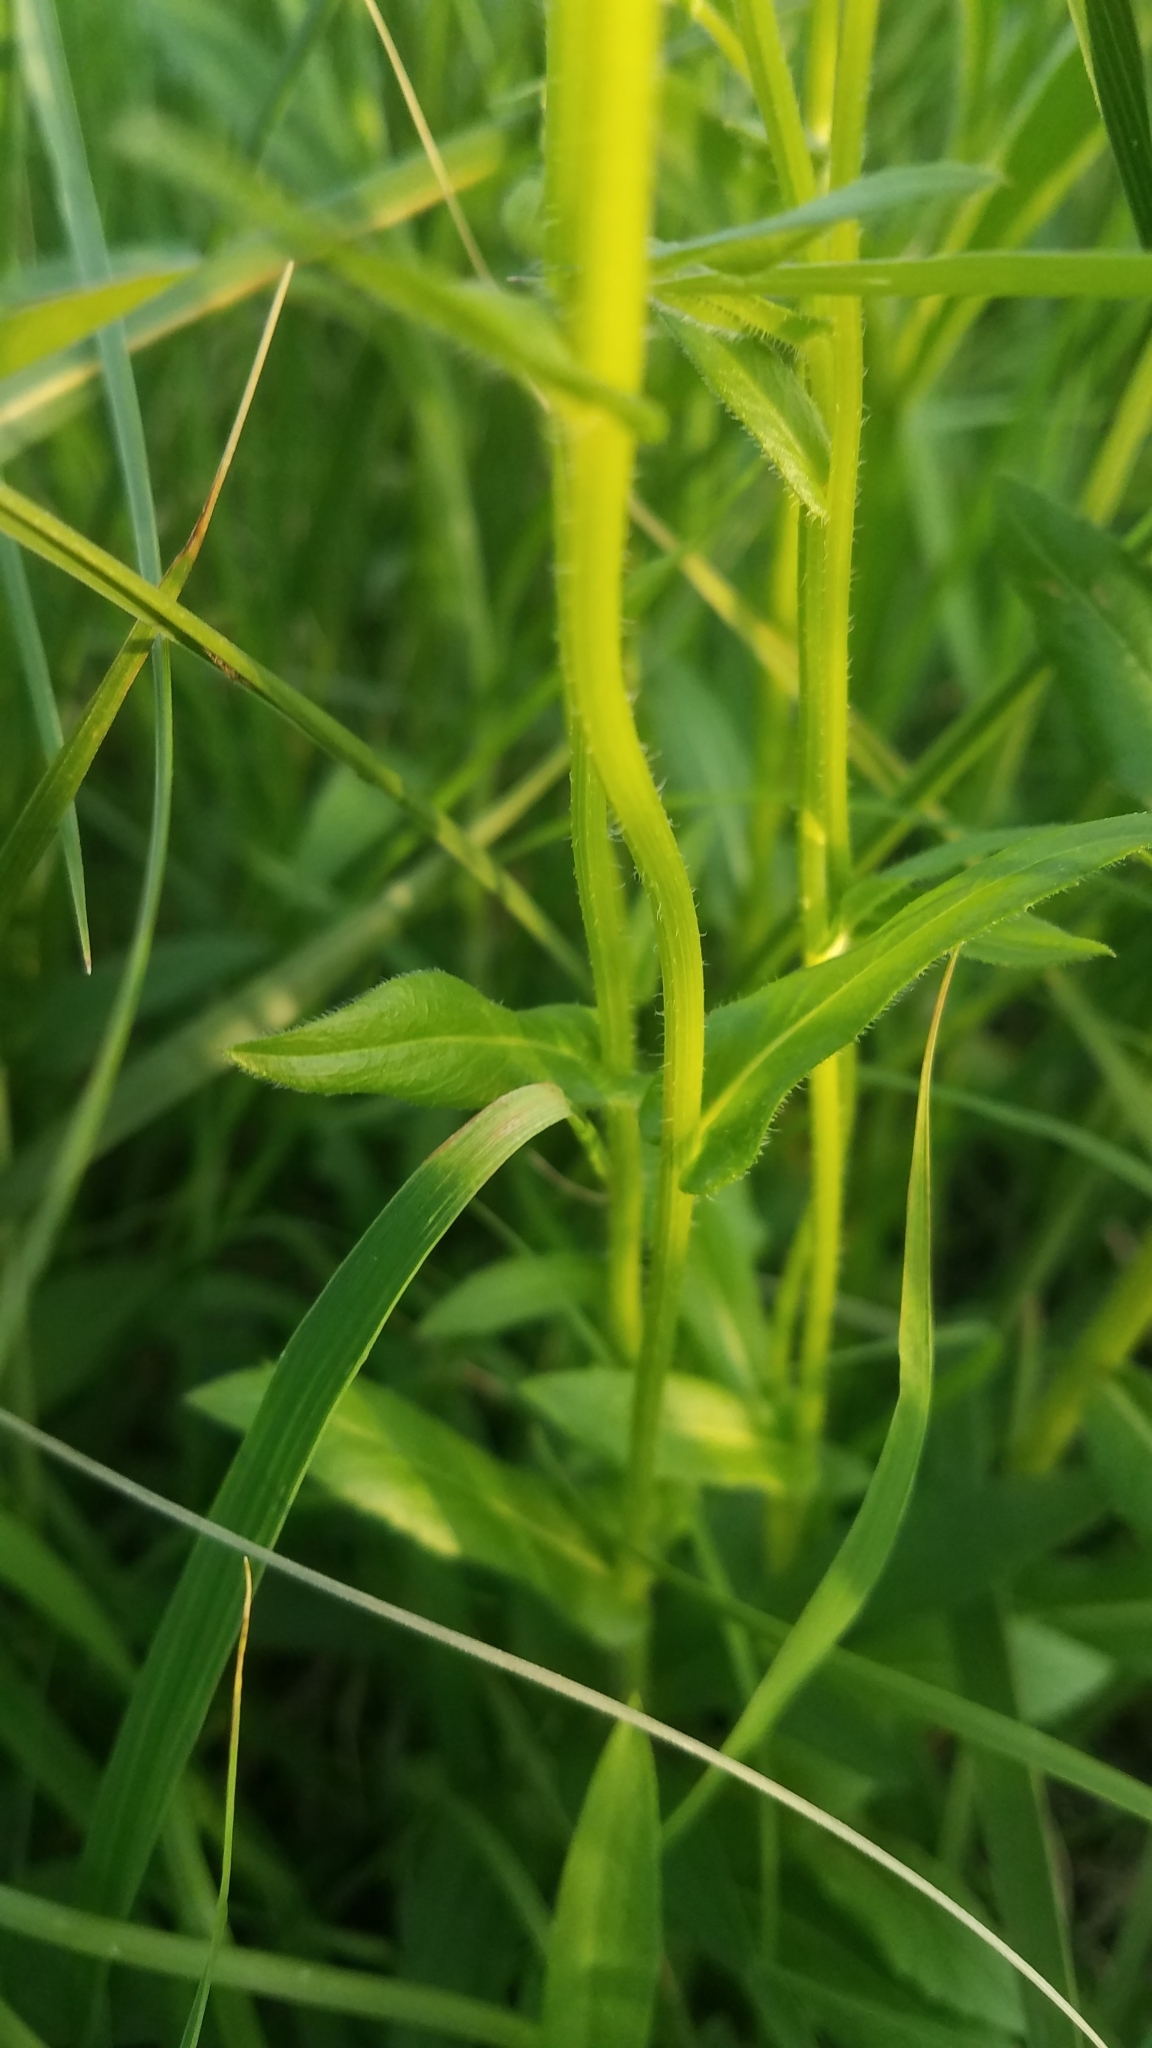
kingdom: Plantae
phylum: Tracheophyta
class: Magnoliopsida
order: Asterales
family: Asteraceae
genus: Erigeron
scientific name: Erigeron philadelphicus
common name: Robin's-plantain
